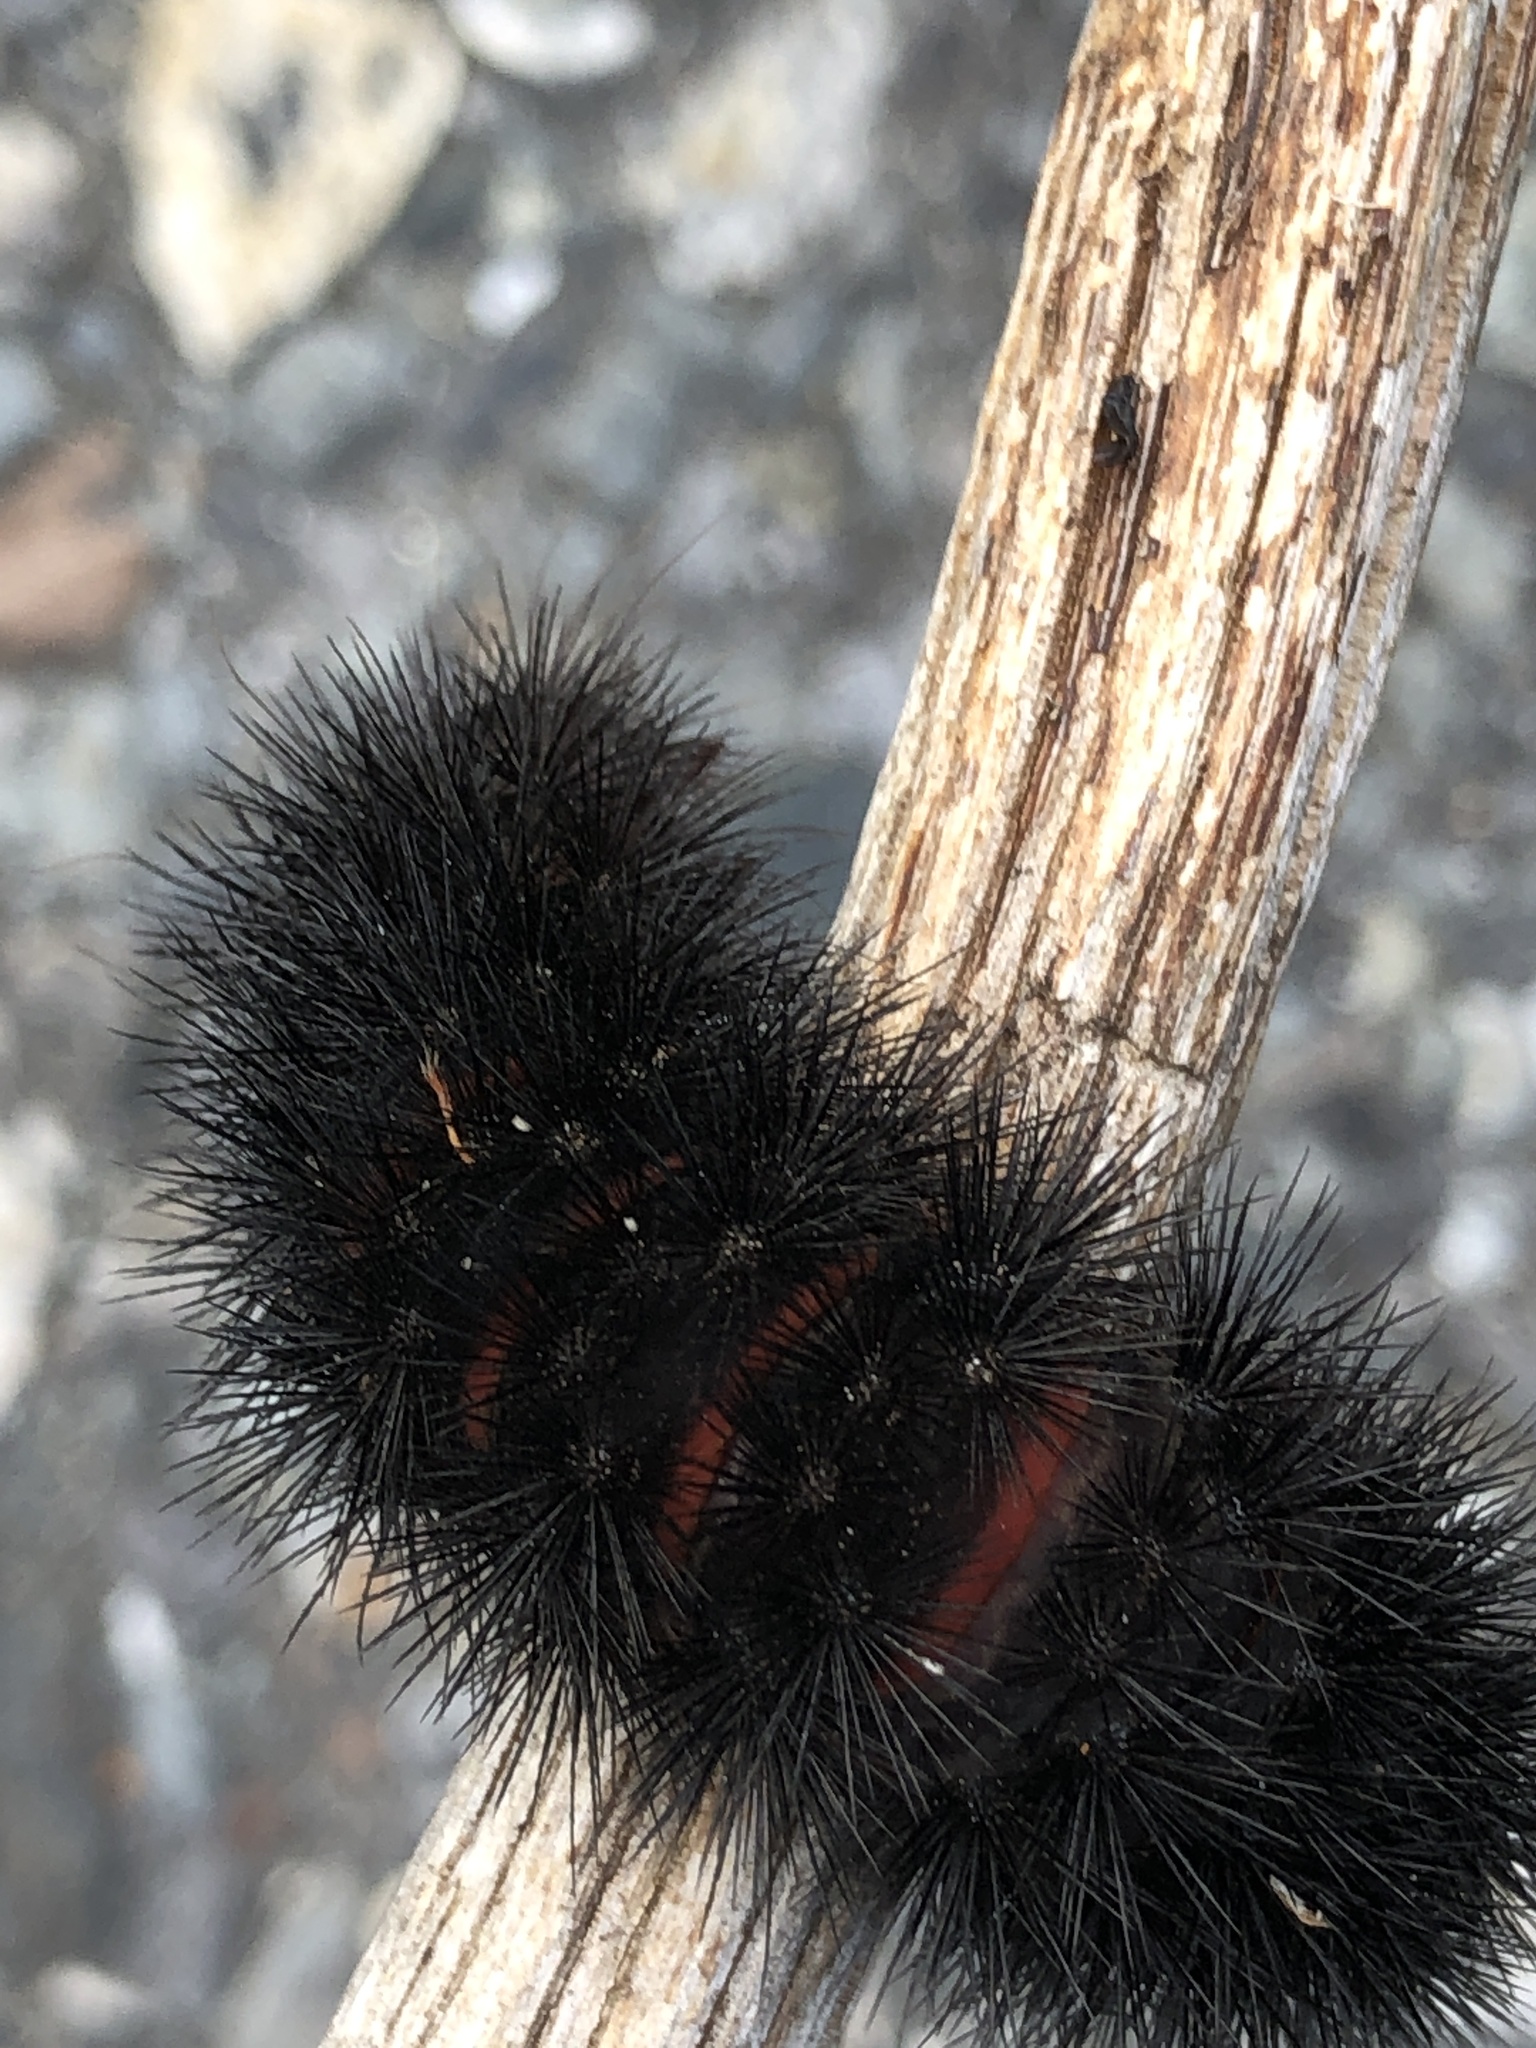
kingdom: Animalia
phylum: Arthropoda
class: Insecta
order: Lepidoptera
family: Erebidae
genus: Hypercompe
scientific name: Hypercompe scribonia
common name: Giant leopard moth
